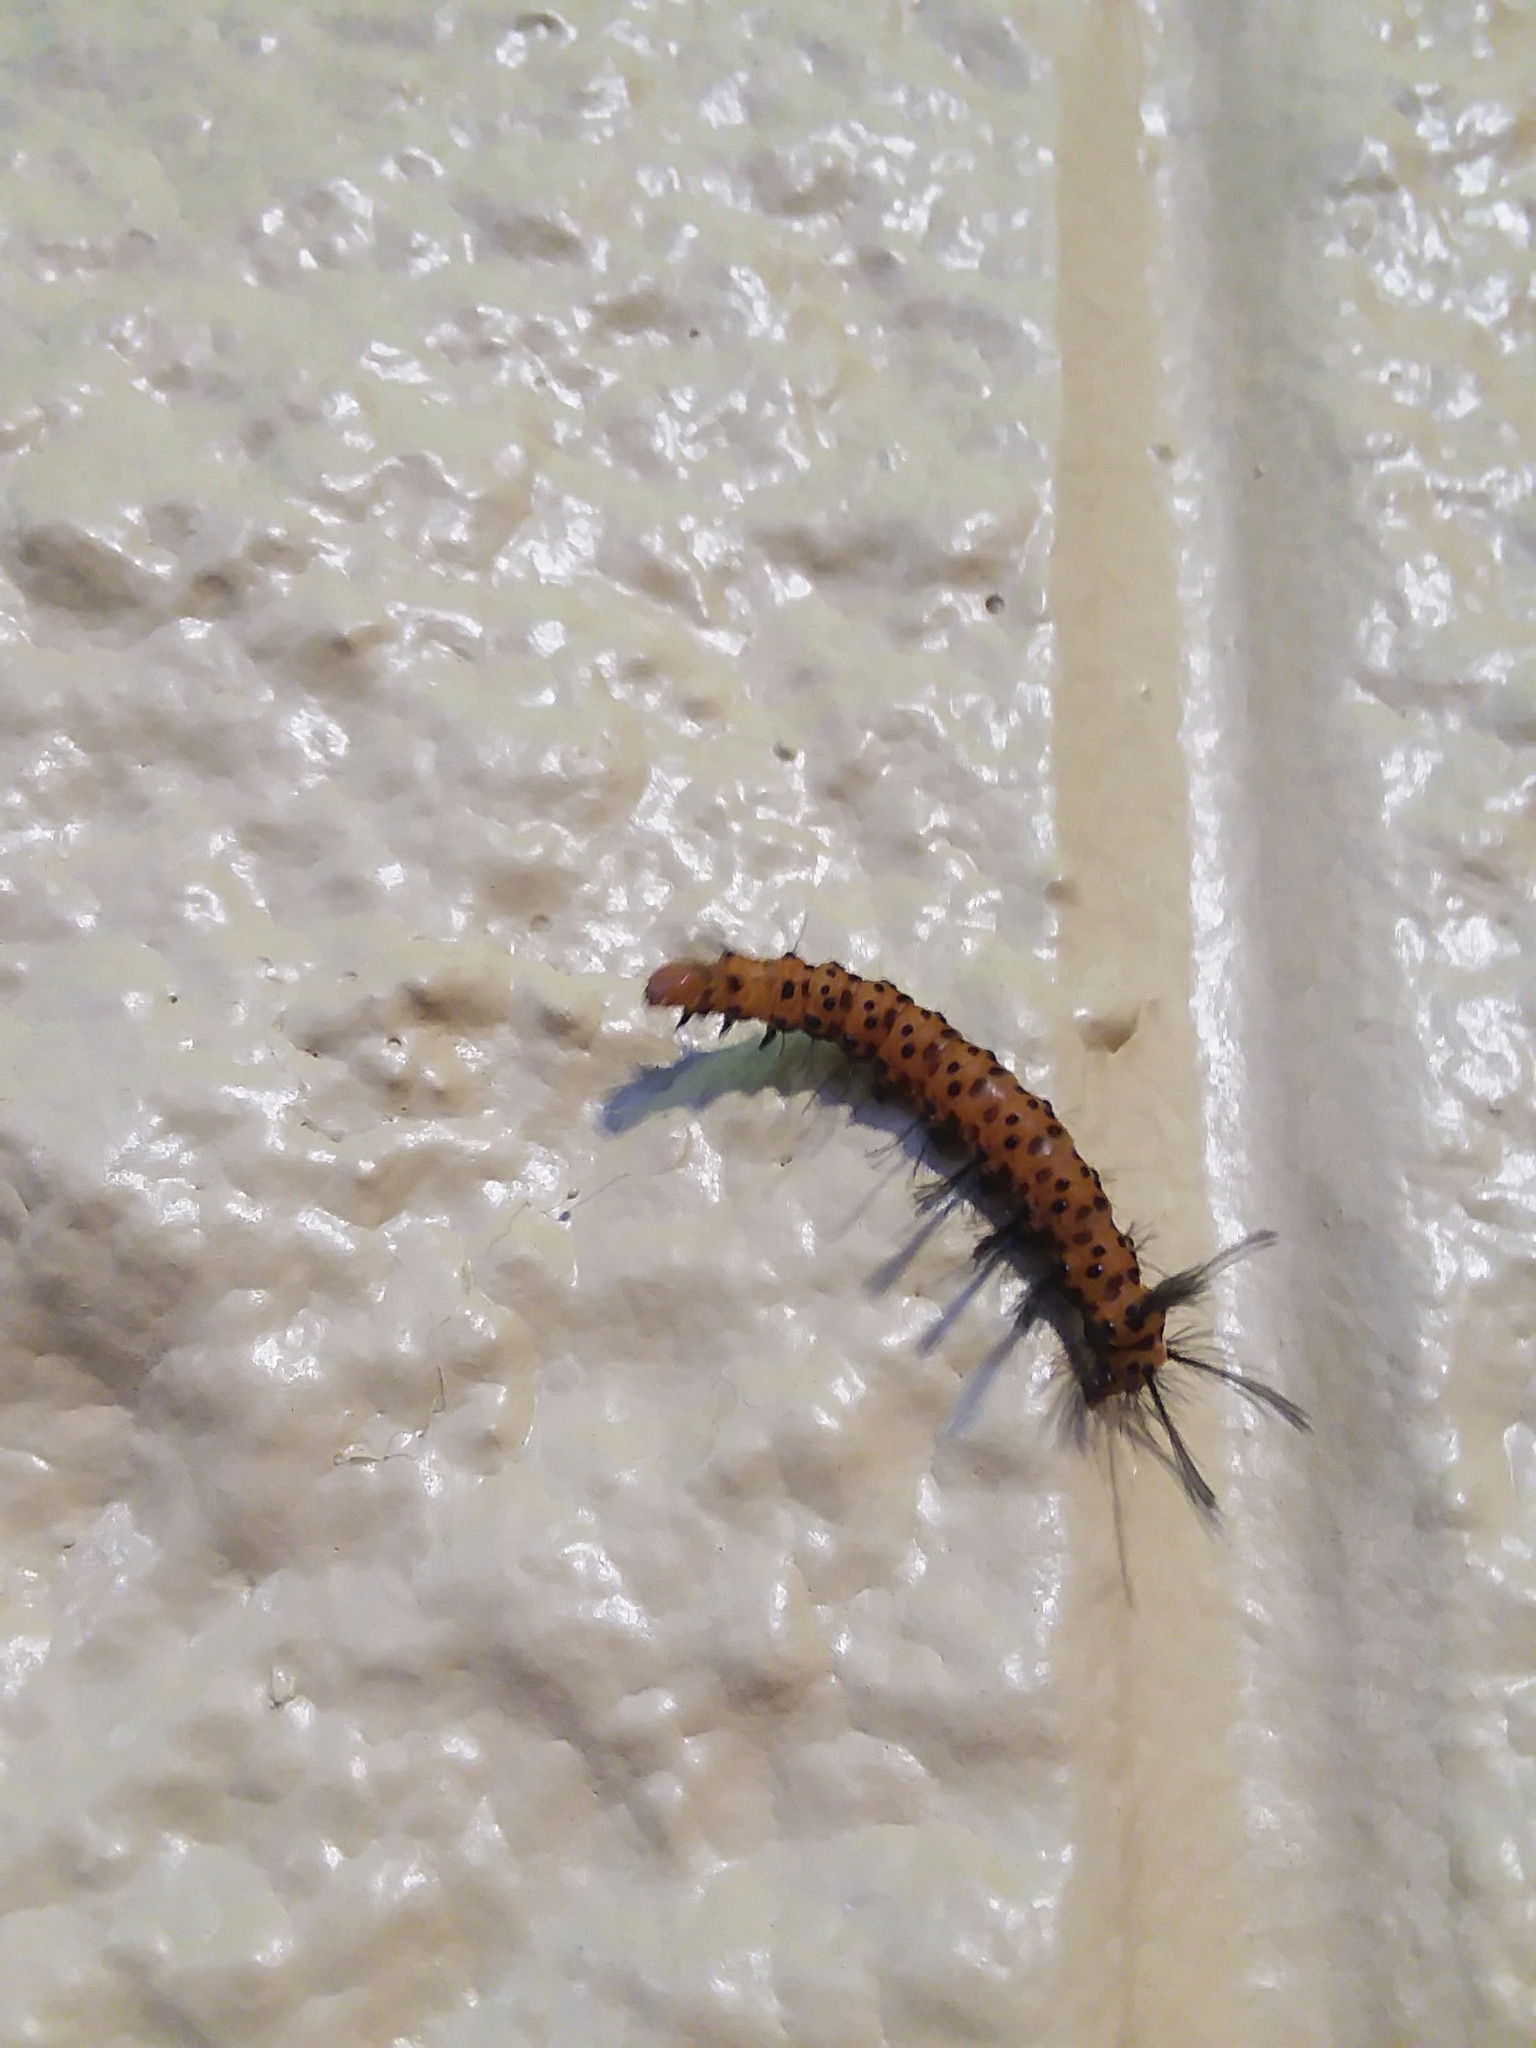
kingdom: Animalia
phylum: Arthropoda
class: Insecta
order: Lepidoptera
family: Erebidae
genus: Syntomeida
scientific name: Syntomeida epilais
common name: Polka-dot wasp moth
